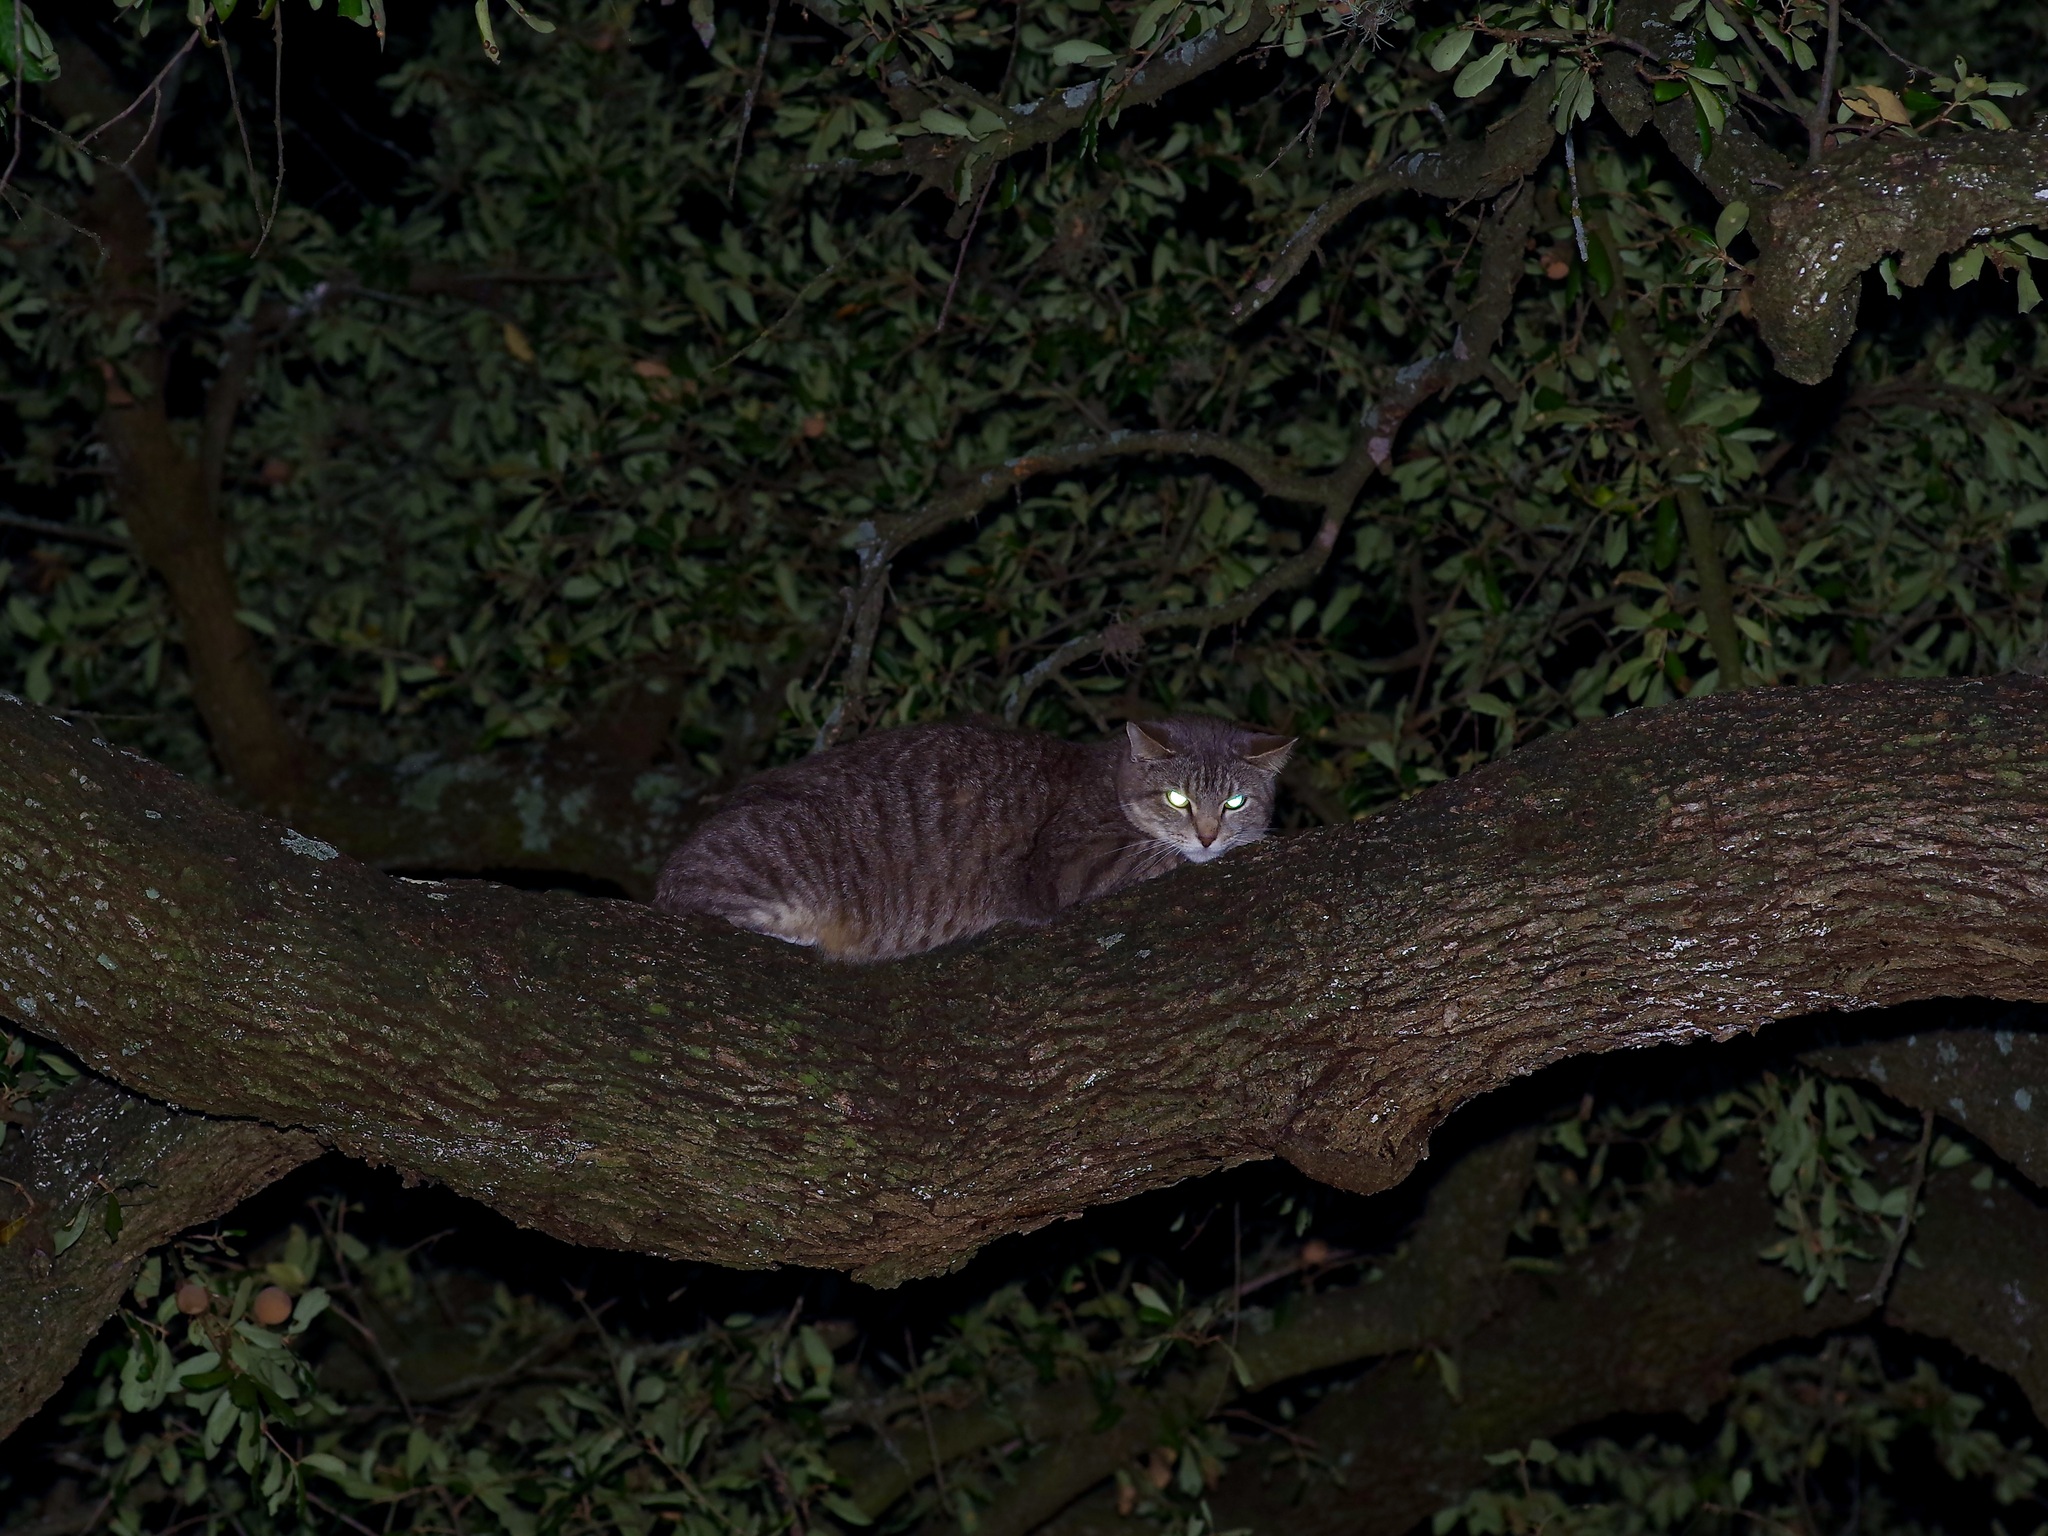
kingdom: Animalia
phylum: Chordata
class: Mammalia
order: Carnivora
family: Felidae
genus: Felis
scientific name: Felis catus
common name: Domestic cat
